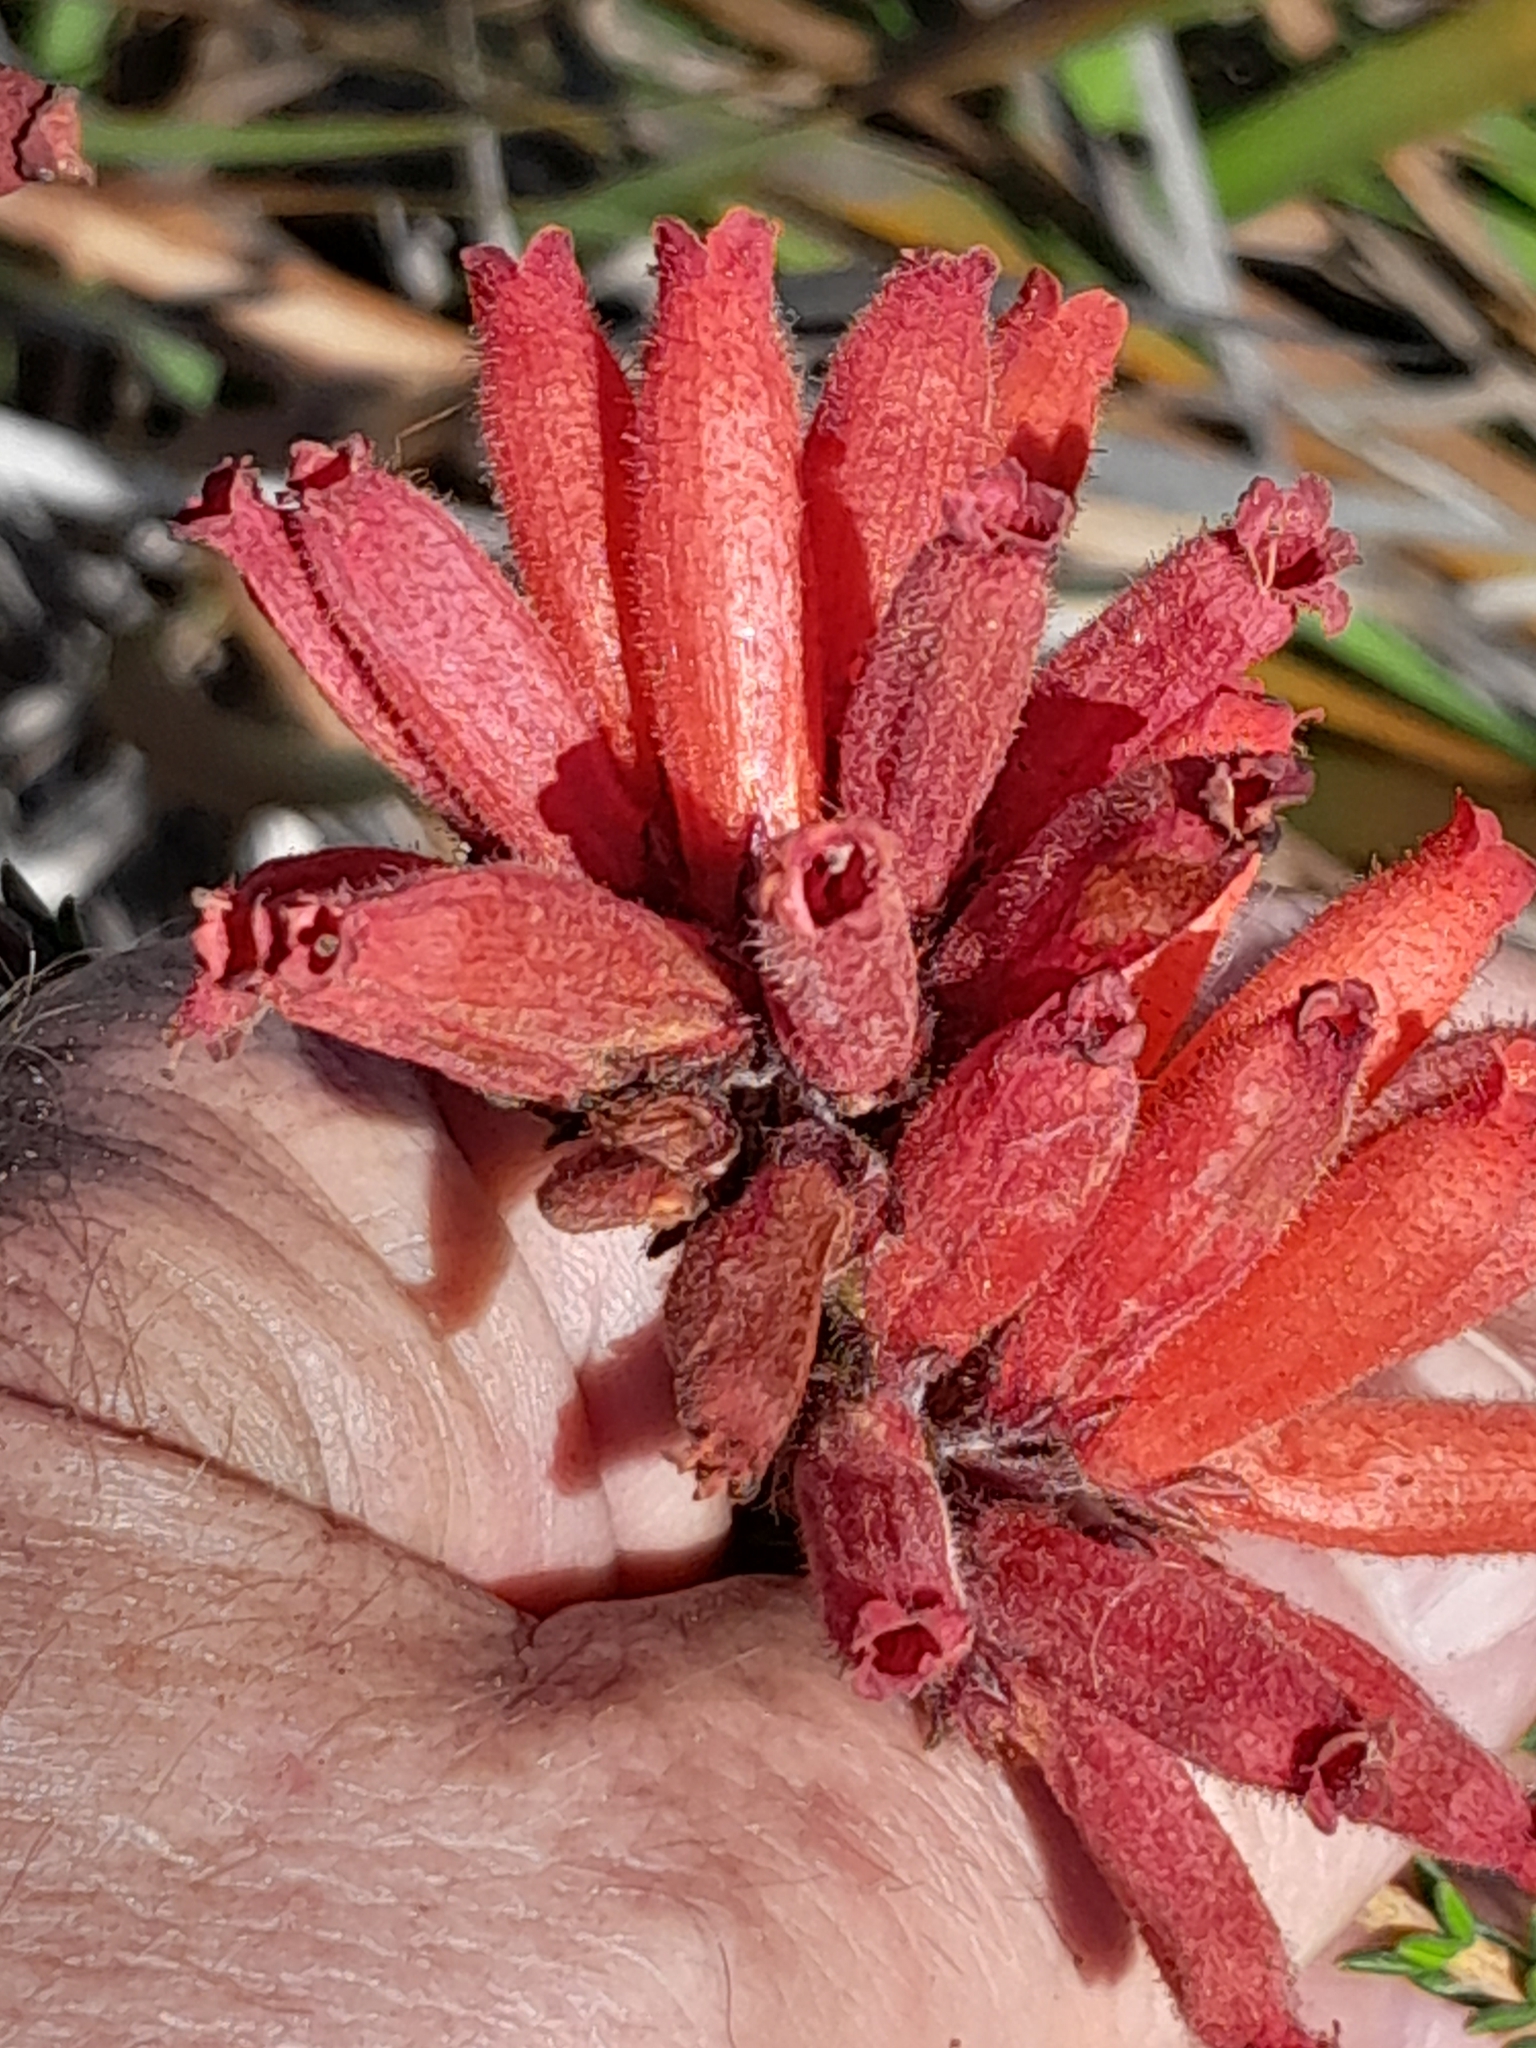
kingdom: Plantae
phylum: Tracheophyta
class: Magnoliopsida
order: Ericales
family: Ericaceae
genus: Erica
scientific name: Erica cerinthoides
